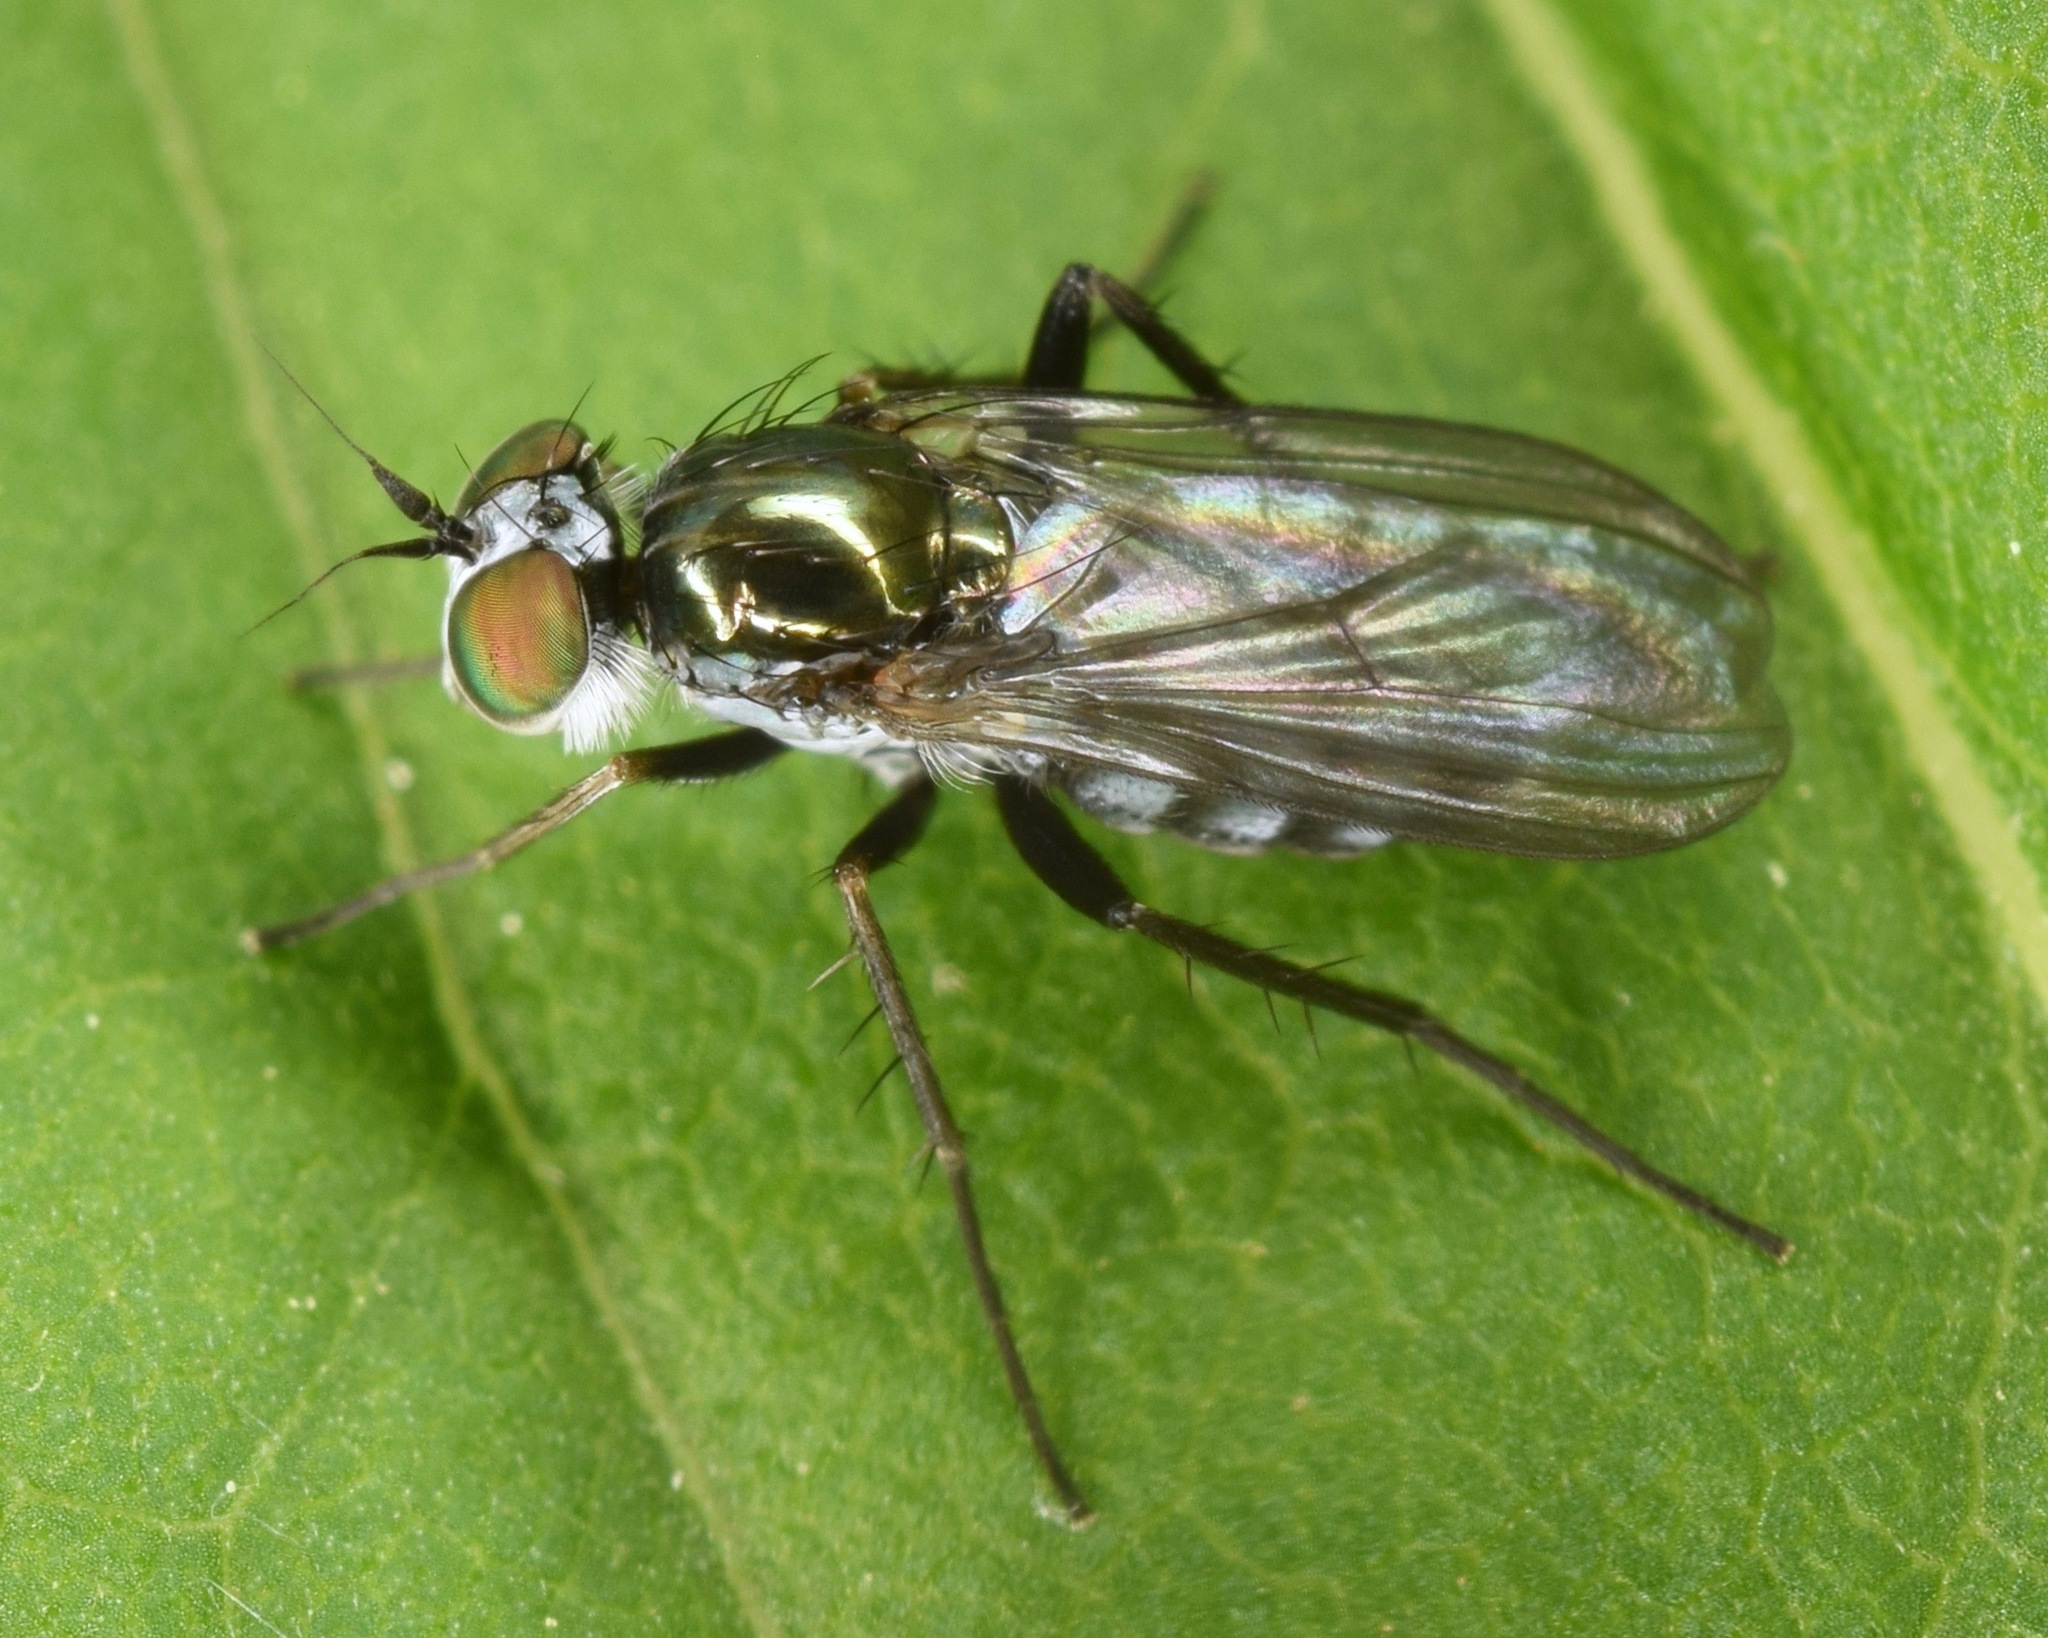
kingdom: Animalia
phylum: Arthropoda
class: Insecta
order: Diptera
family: Dolichopodidae
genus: Rhaphium
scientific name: Rhaphium
